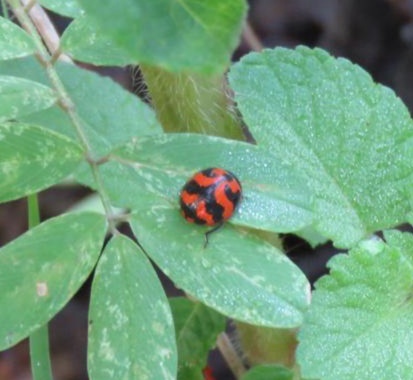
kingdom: Animalia
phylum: Arthropoda
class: Insecta
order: Coleoptera
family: Coccinellidae
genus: Coccinella
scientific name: Coccinella transversalis
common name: Transverse lady beetle
